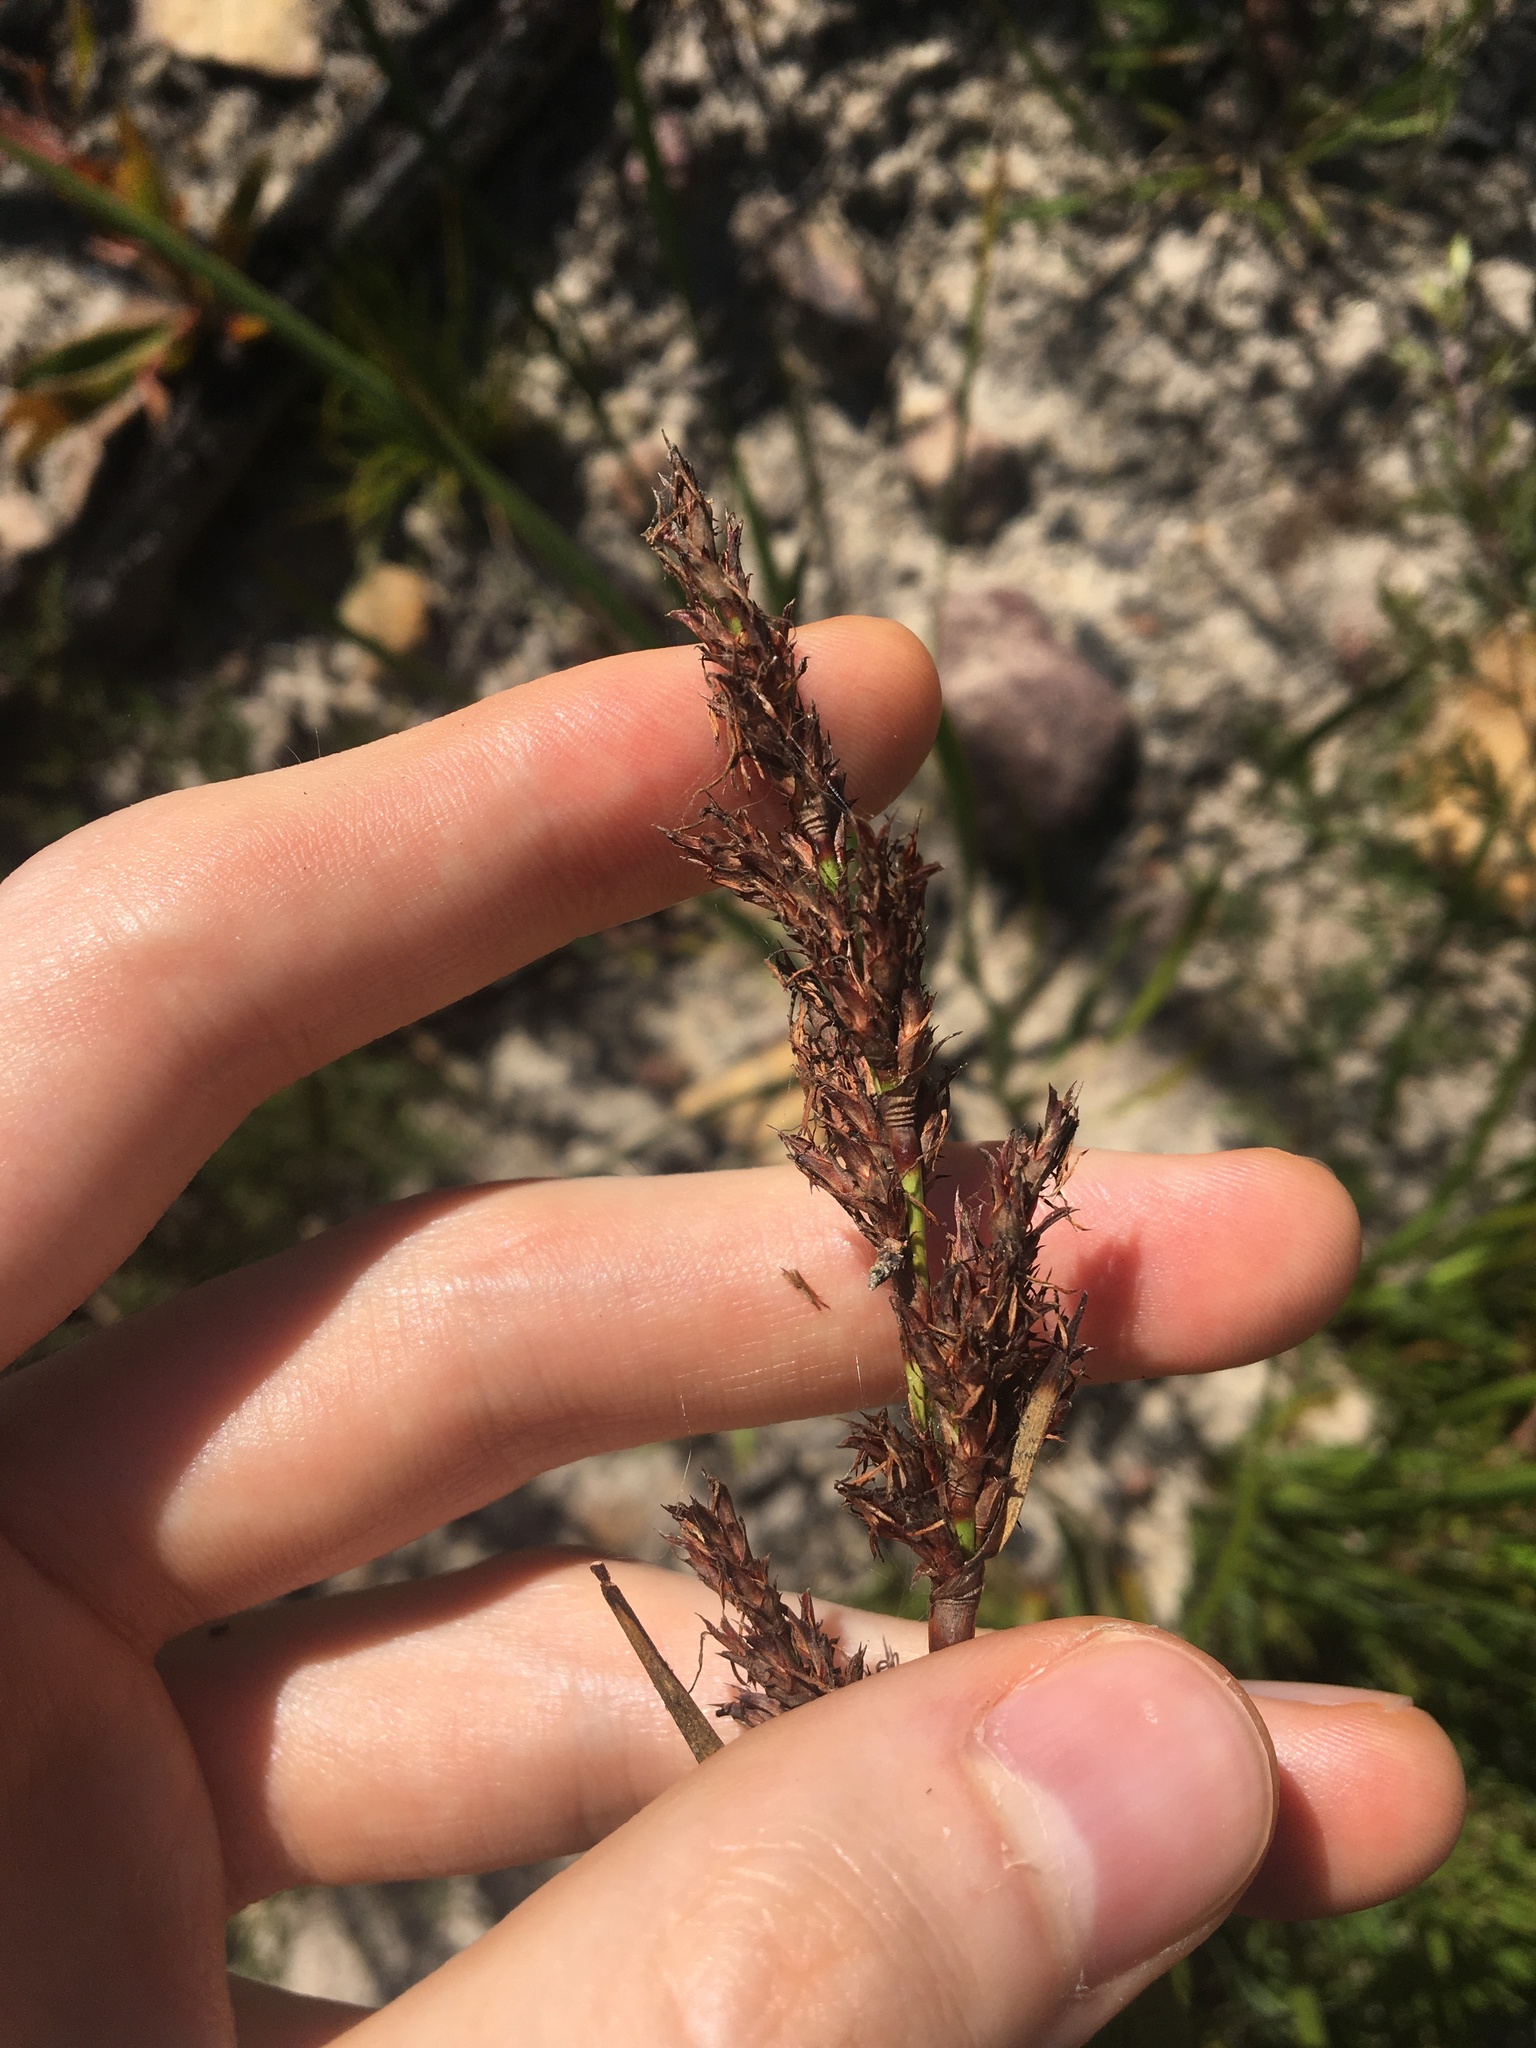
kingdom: Plantae
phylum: Tracheophyta
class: Liliopsida
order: Poales
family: Cyperaceae
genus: Lepidosperma
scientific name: Lepidosperma viscidum
